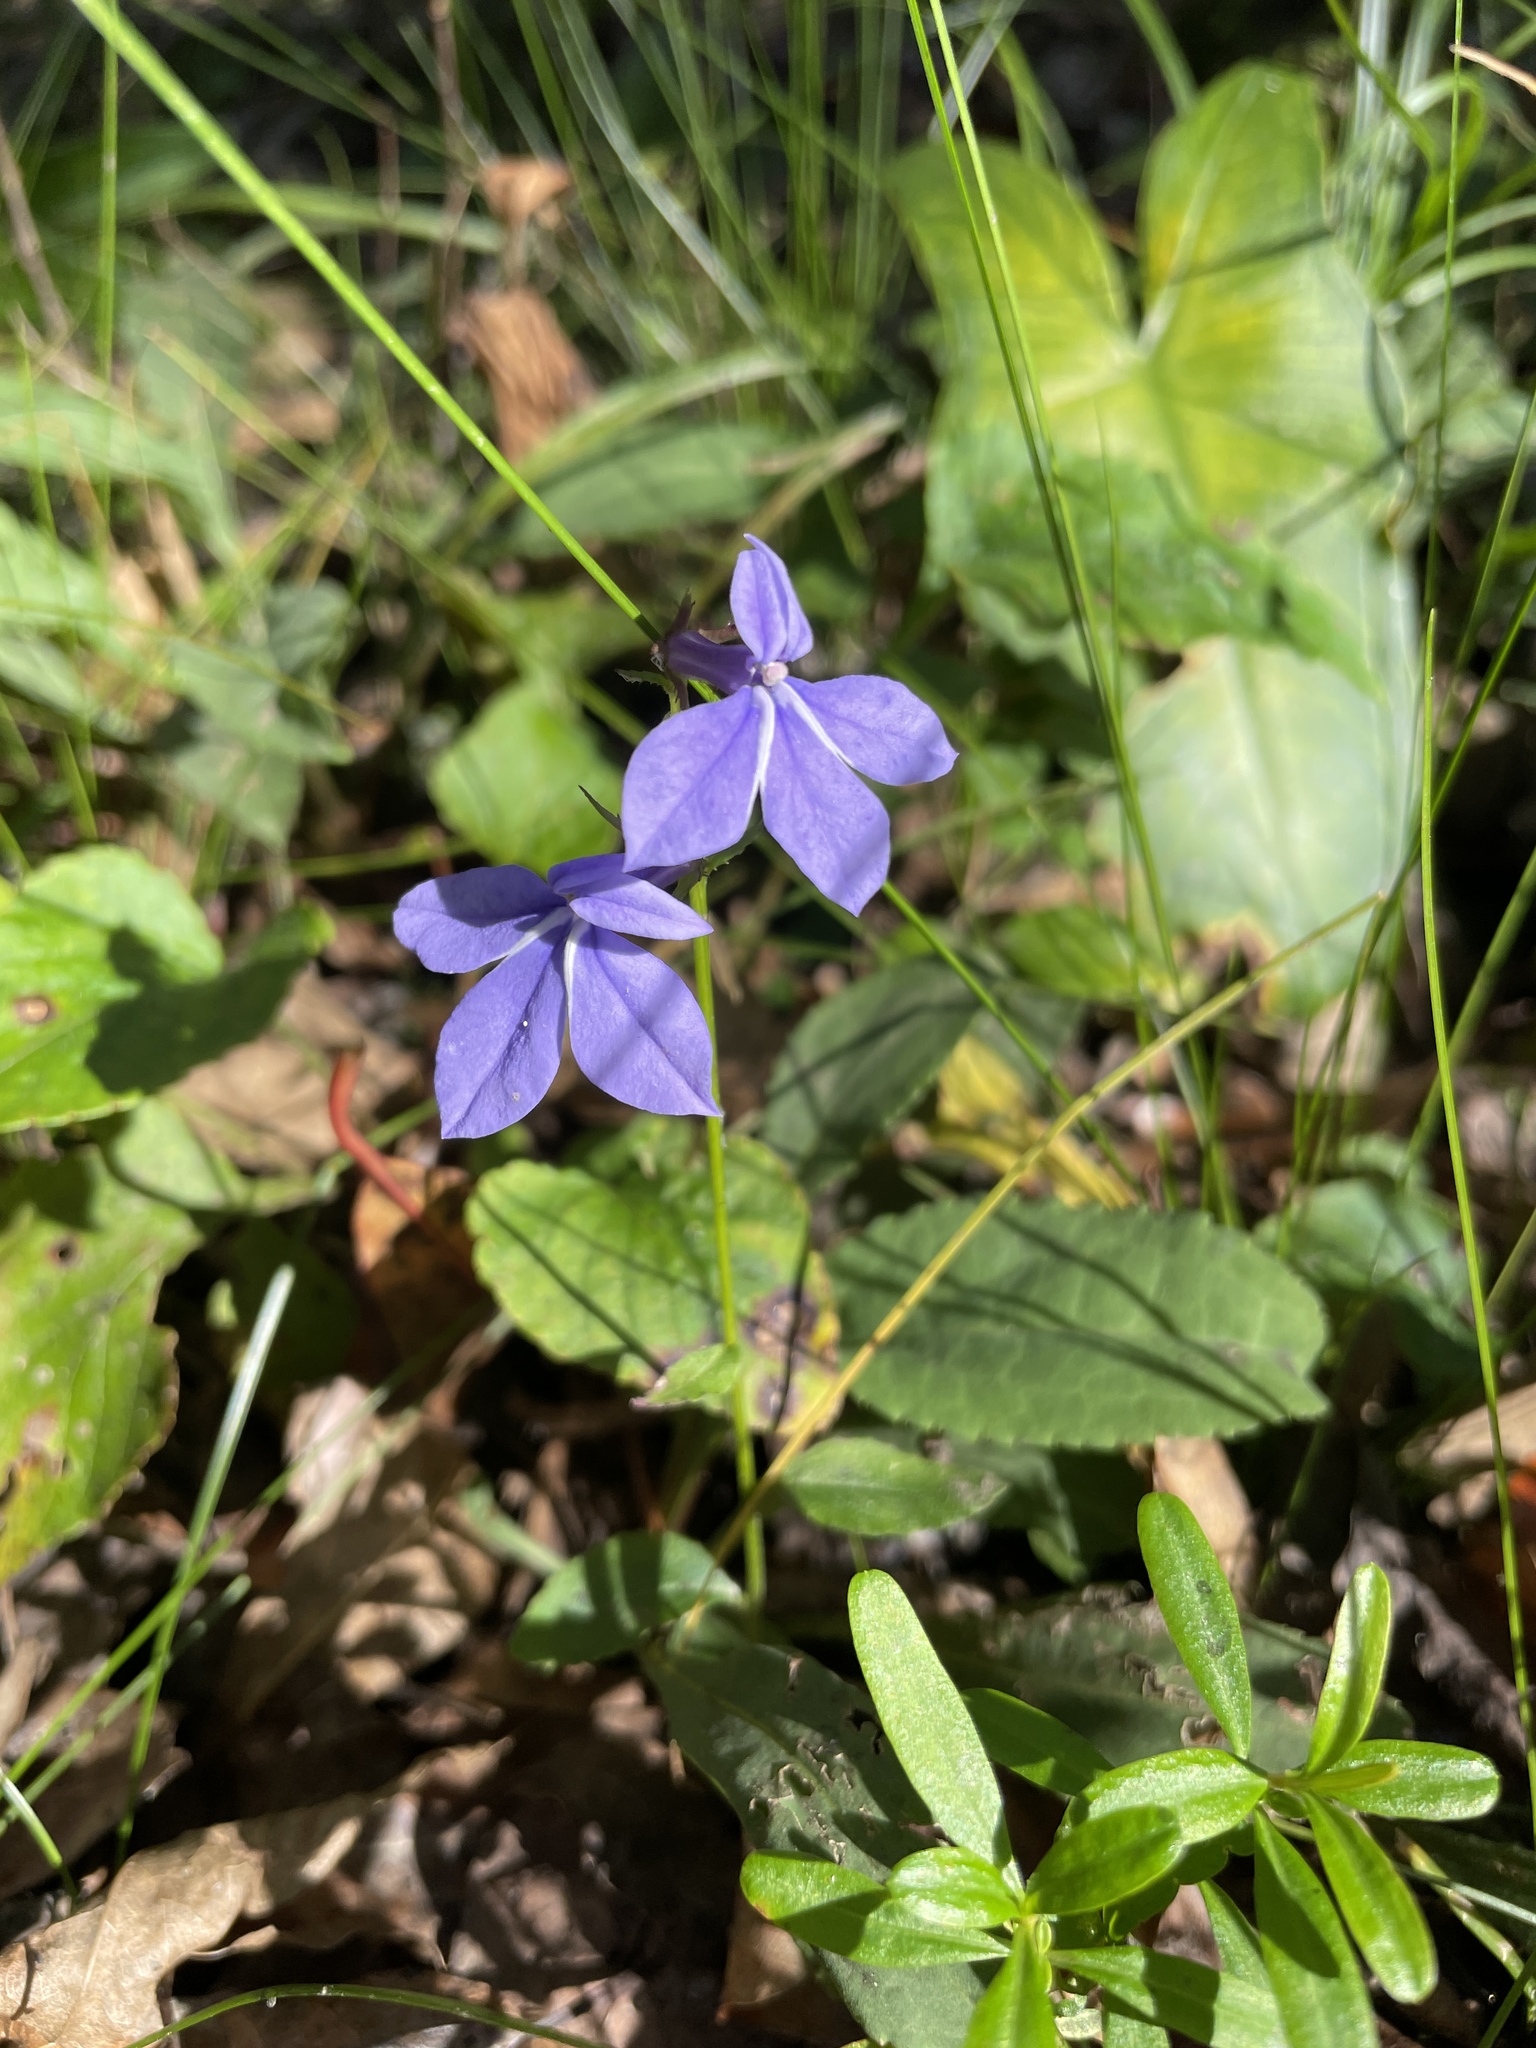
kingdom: Plantae
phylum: Tracheophyta
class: Magnoliopsida
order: Asterales
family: Campanulaceae
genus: Lobelia
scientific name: Lobelia rogersii
